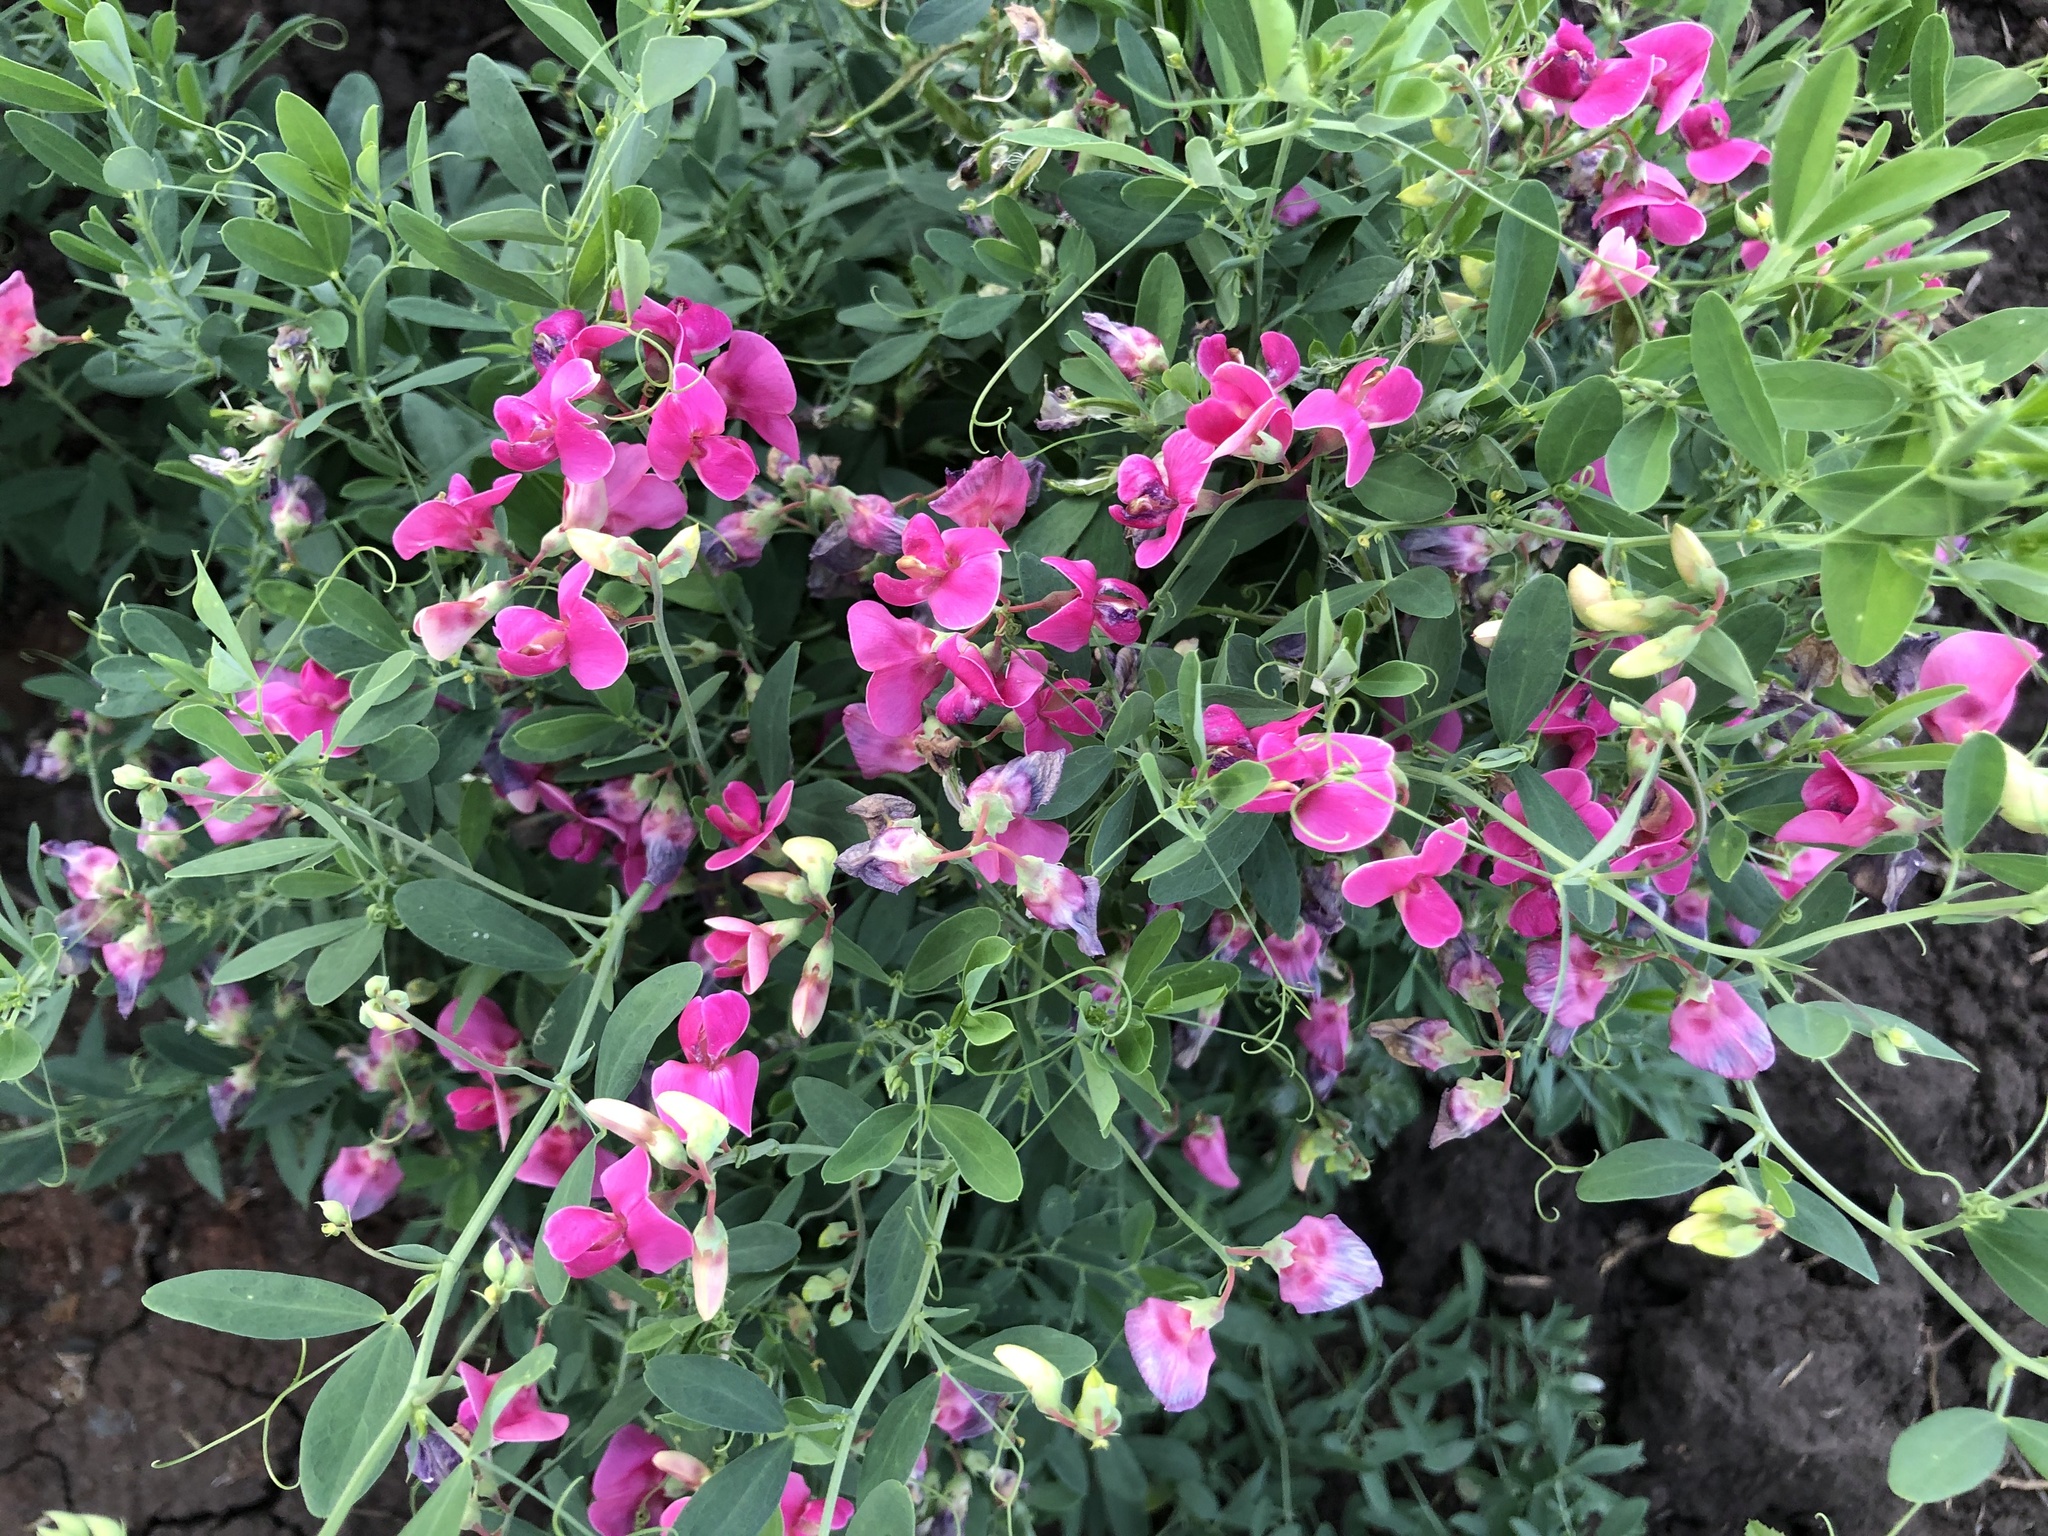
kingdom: Plantae
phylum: Tracheophyta
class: Magnoliopsida
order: Fabales
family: Fabaceae
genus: Lathyrus
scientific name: Lathyrus tuberosus
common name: Tuberous pea
